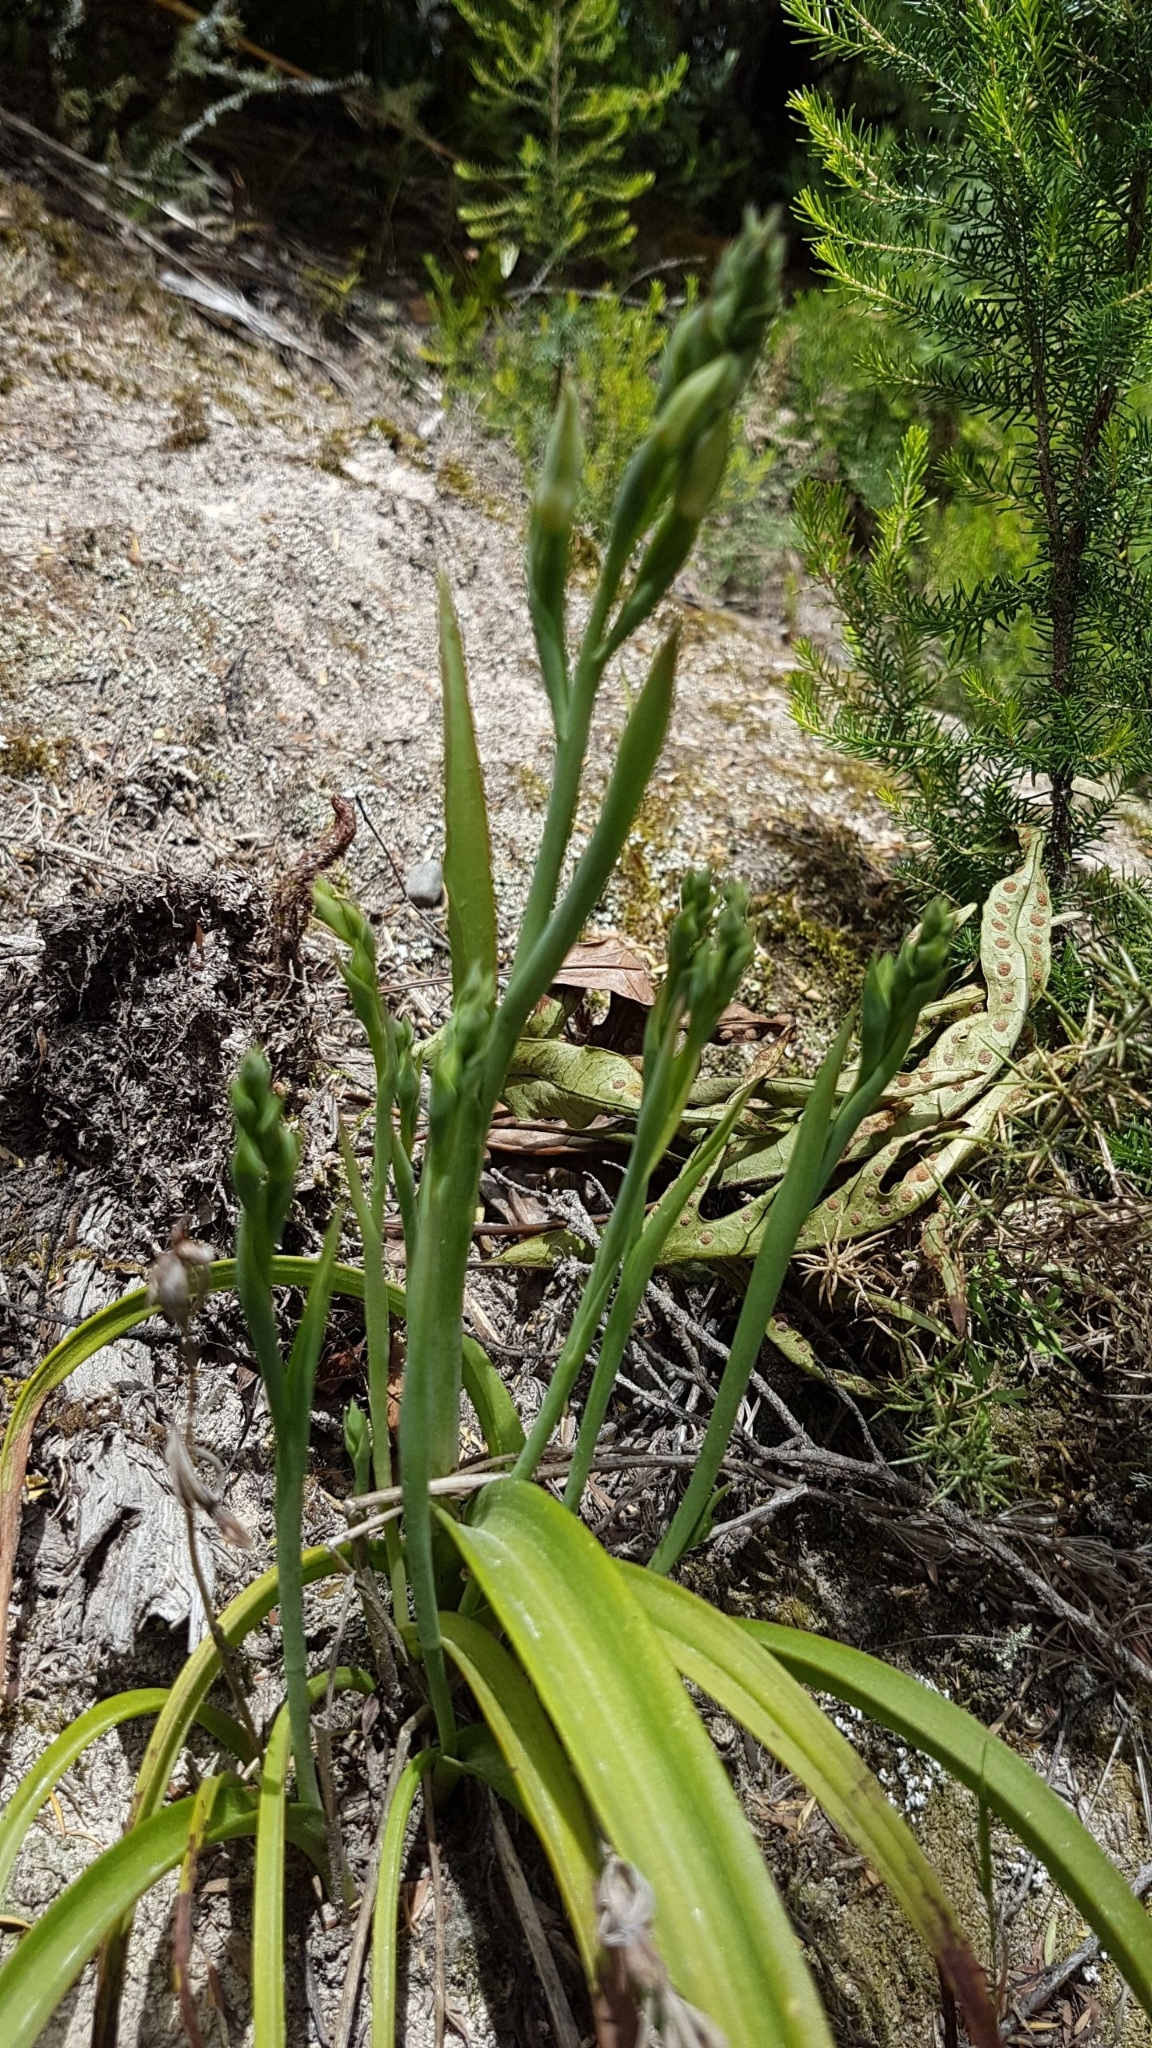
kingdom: Plantae
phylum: Tracheophyta
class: Liliopsida
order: Asparagales
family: Orchidaceae
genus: Thelymitra
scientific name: Thelymitra longifolia
